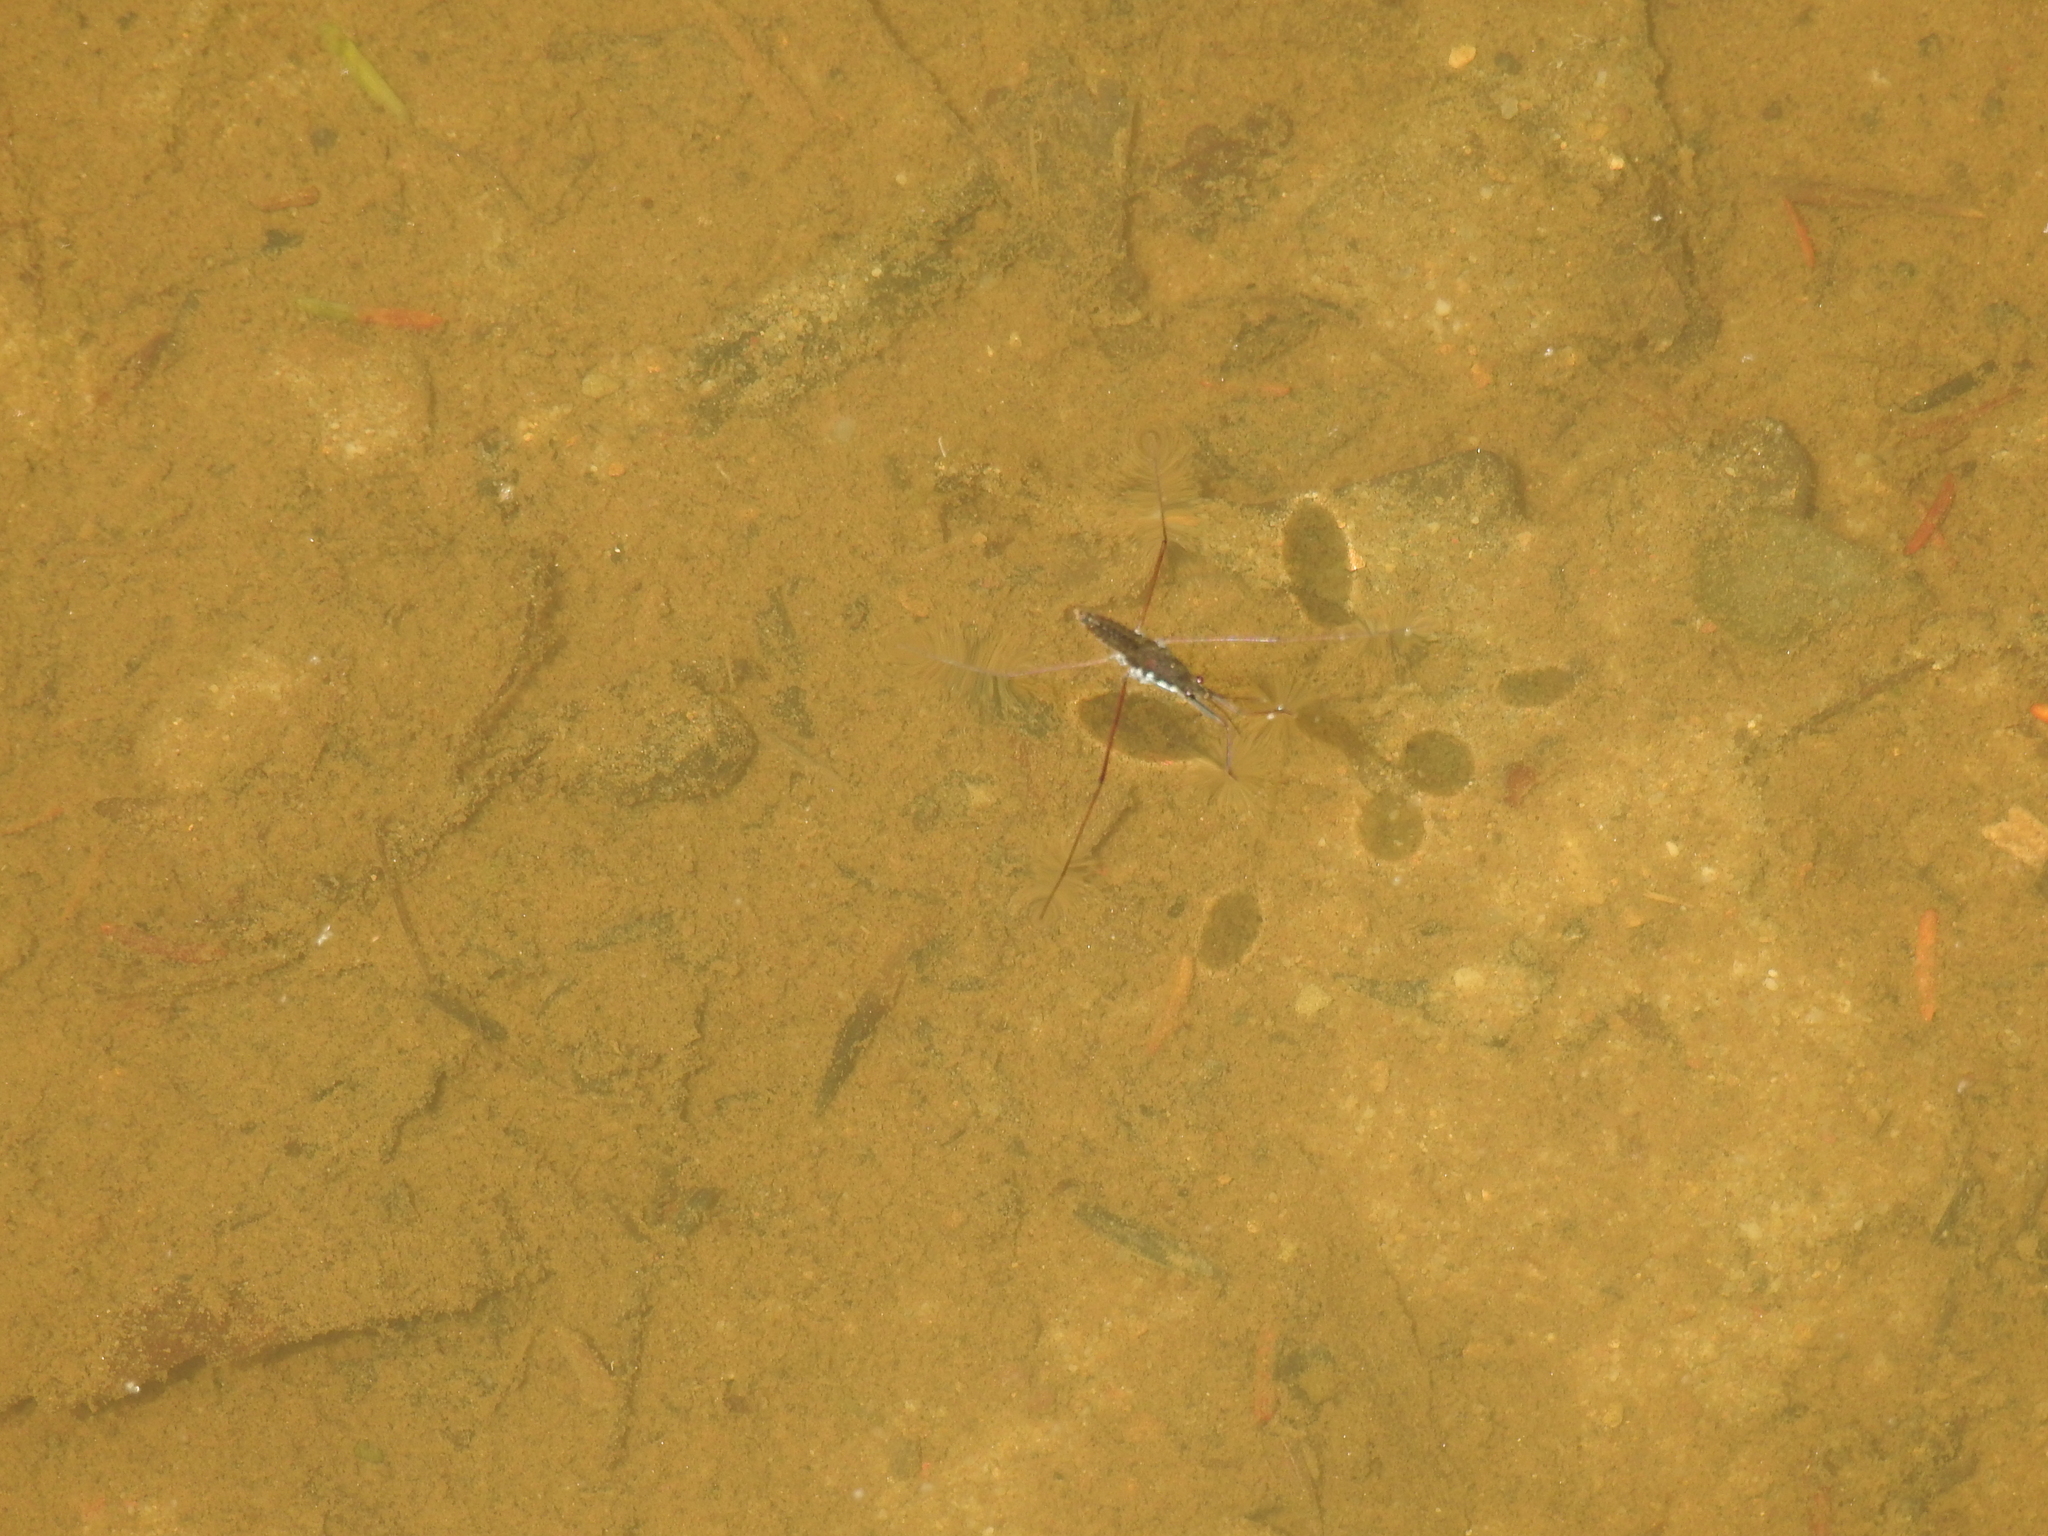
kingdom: Animalia
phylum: Arthropoda
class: Insecta
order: Hemiptera
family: Gerridae
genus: Aquarius
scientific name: Aquarius remigis
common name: Common water strider
